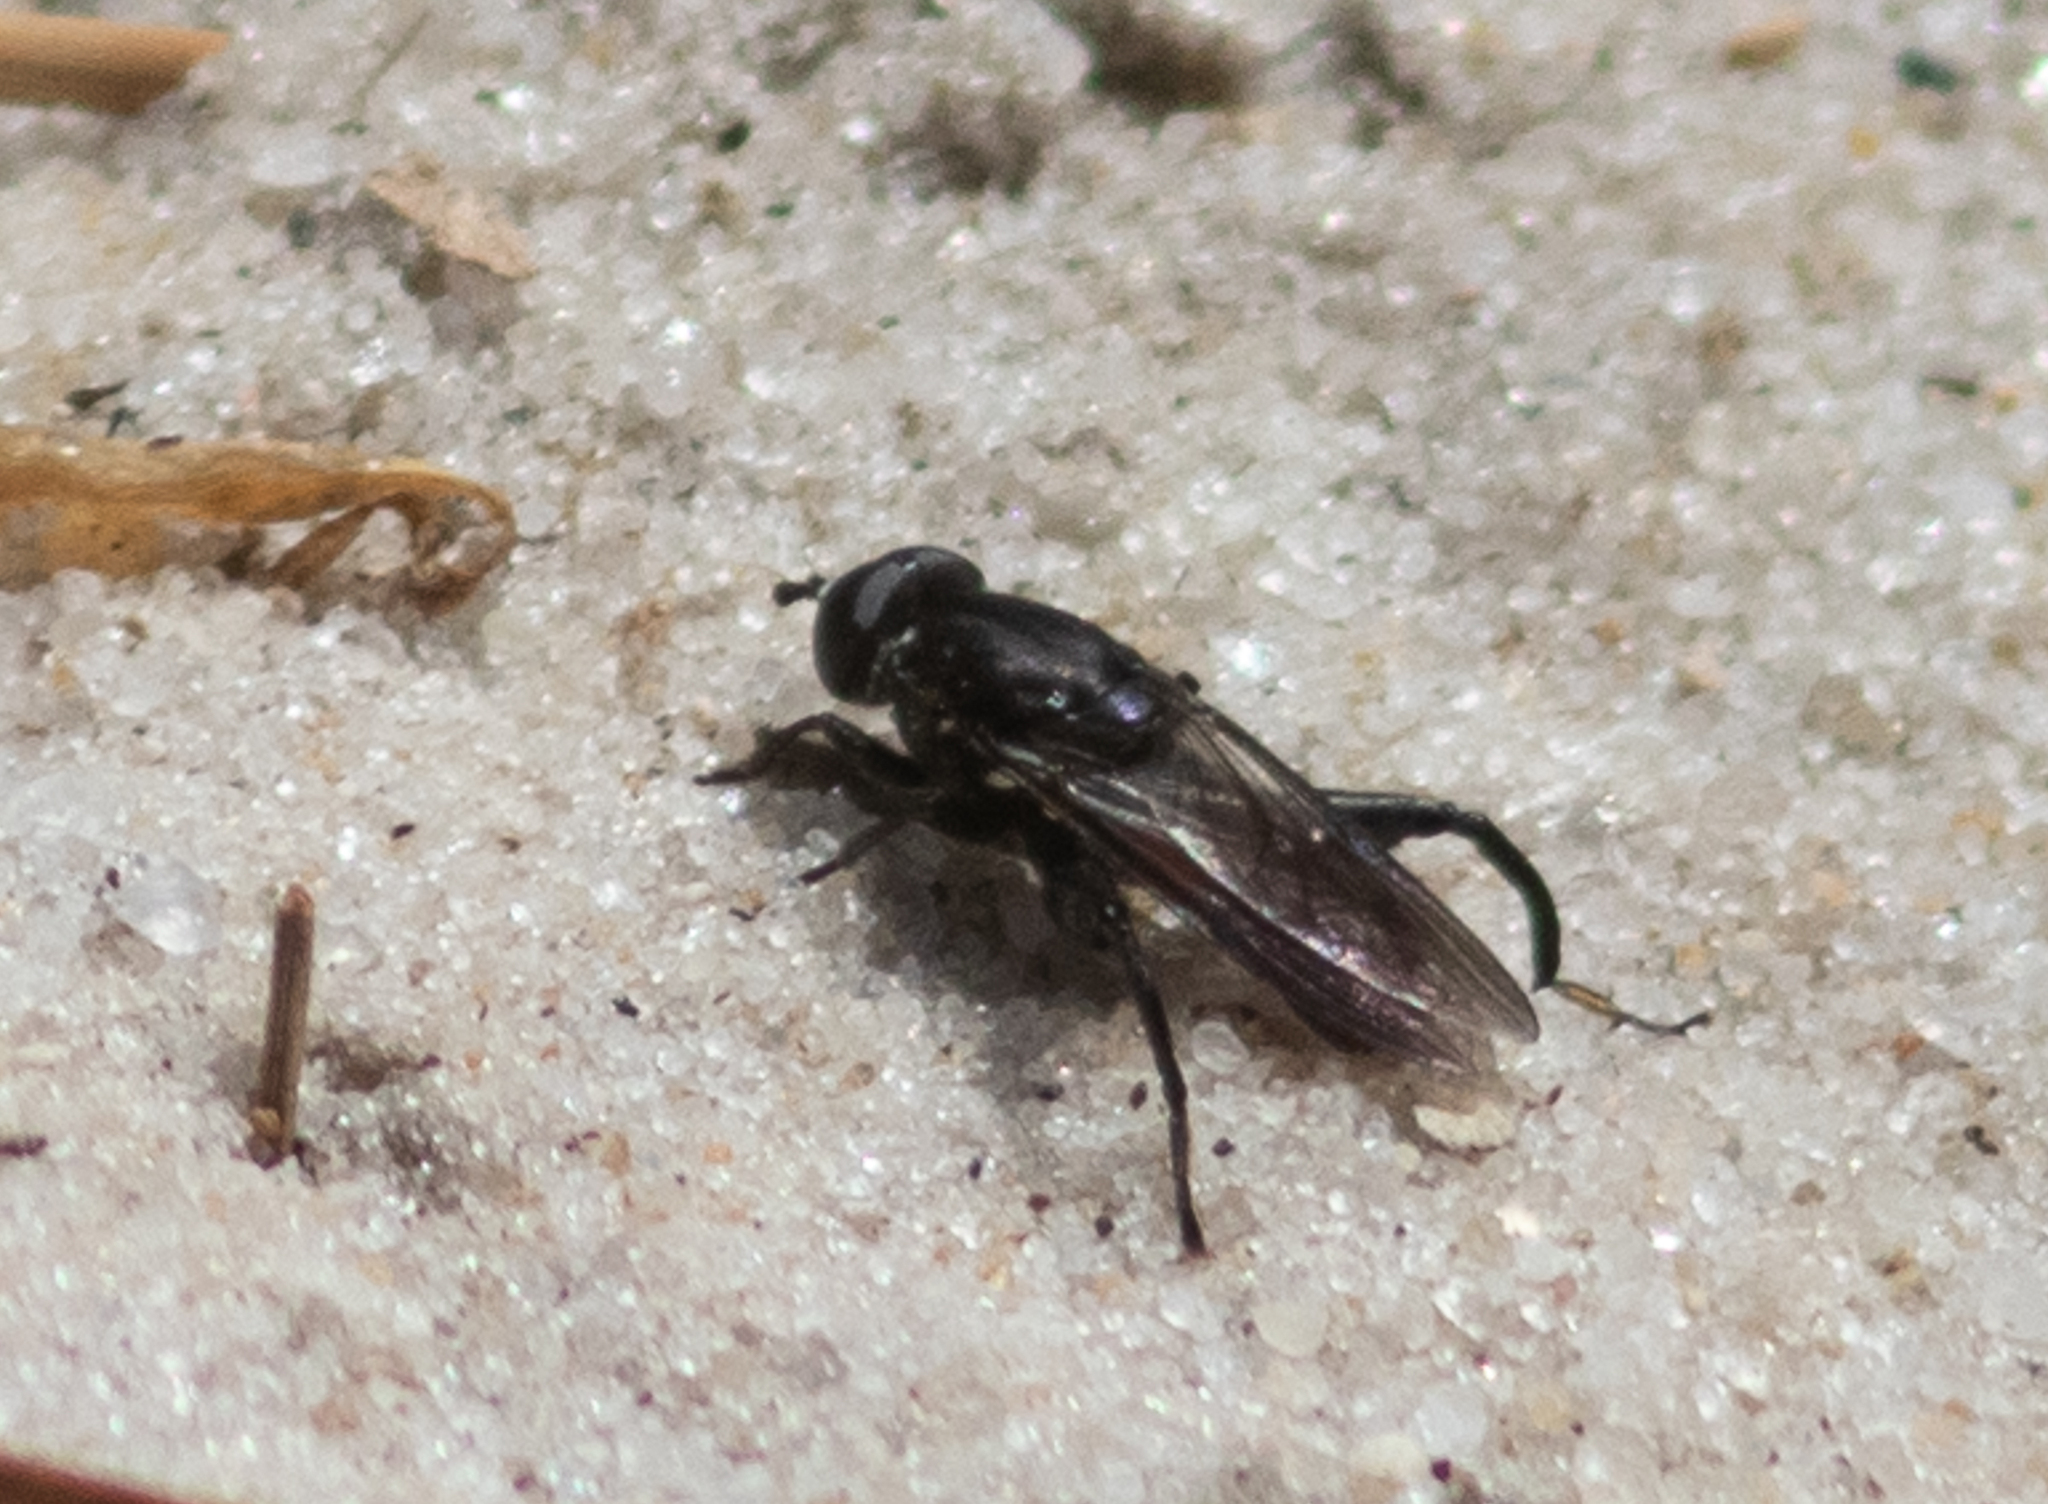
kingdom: Animalia
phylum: Arthropoda
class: Insecta
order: Diptera
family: Syrphidae
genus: Chalcosyrphus
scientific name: Chalcosyrphus piger
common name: Short-haired leafwalker
